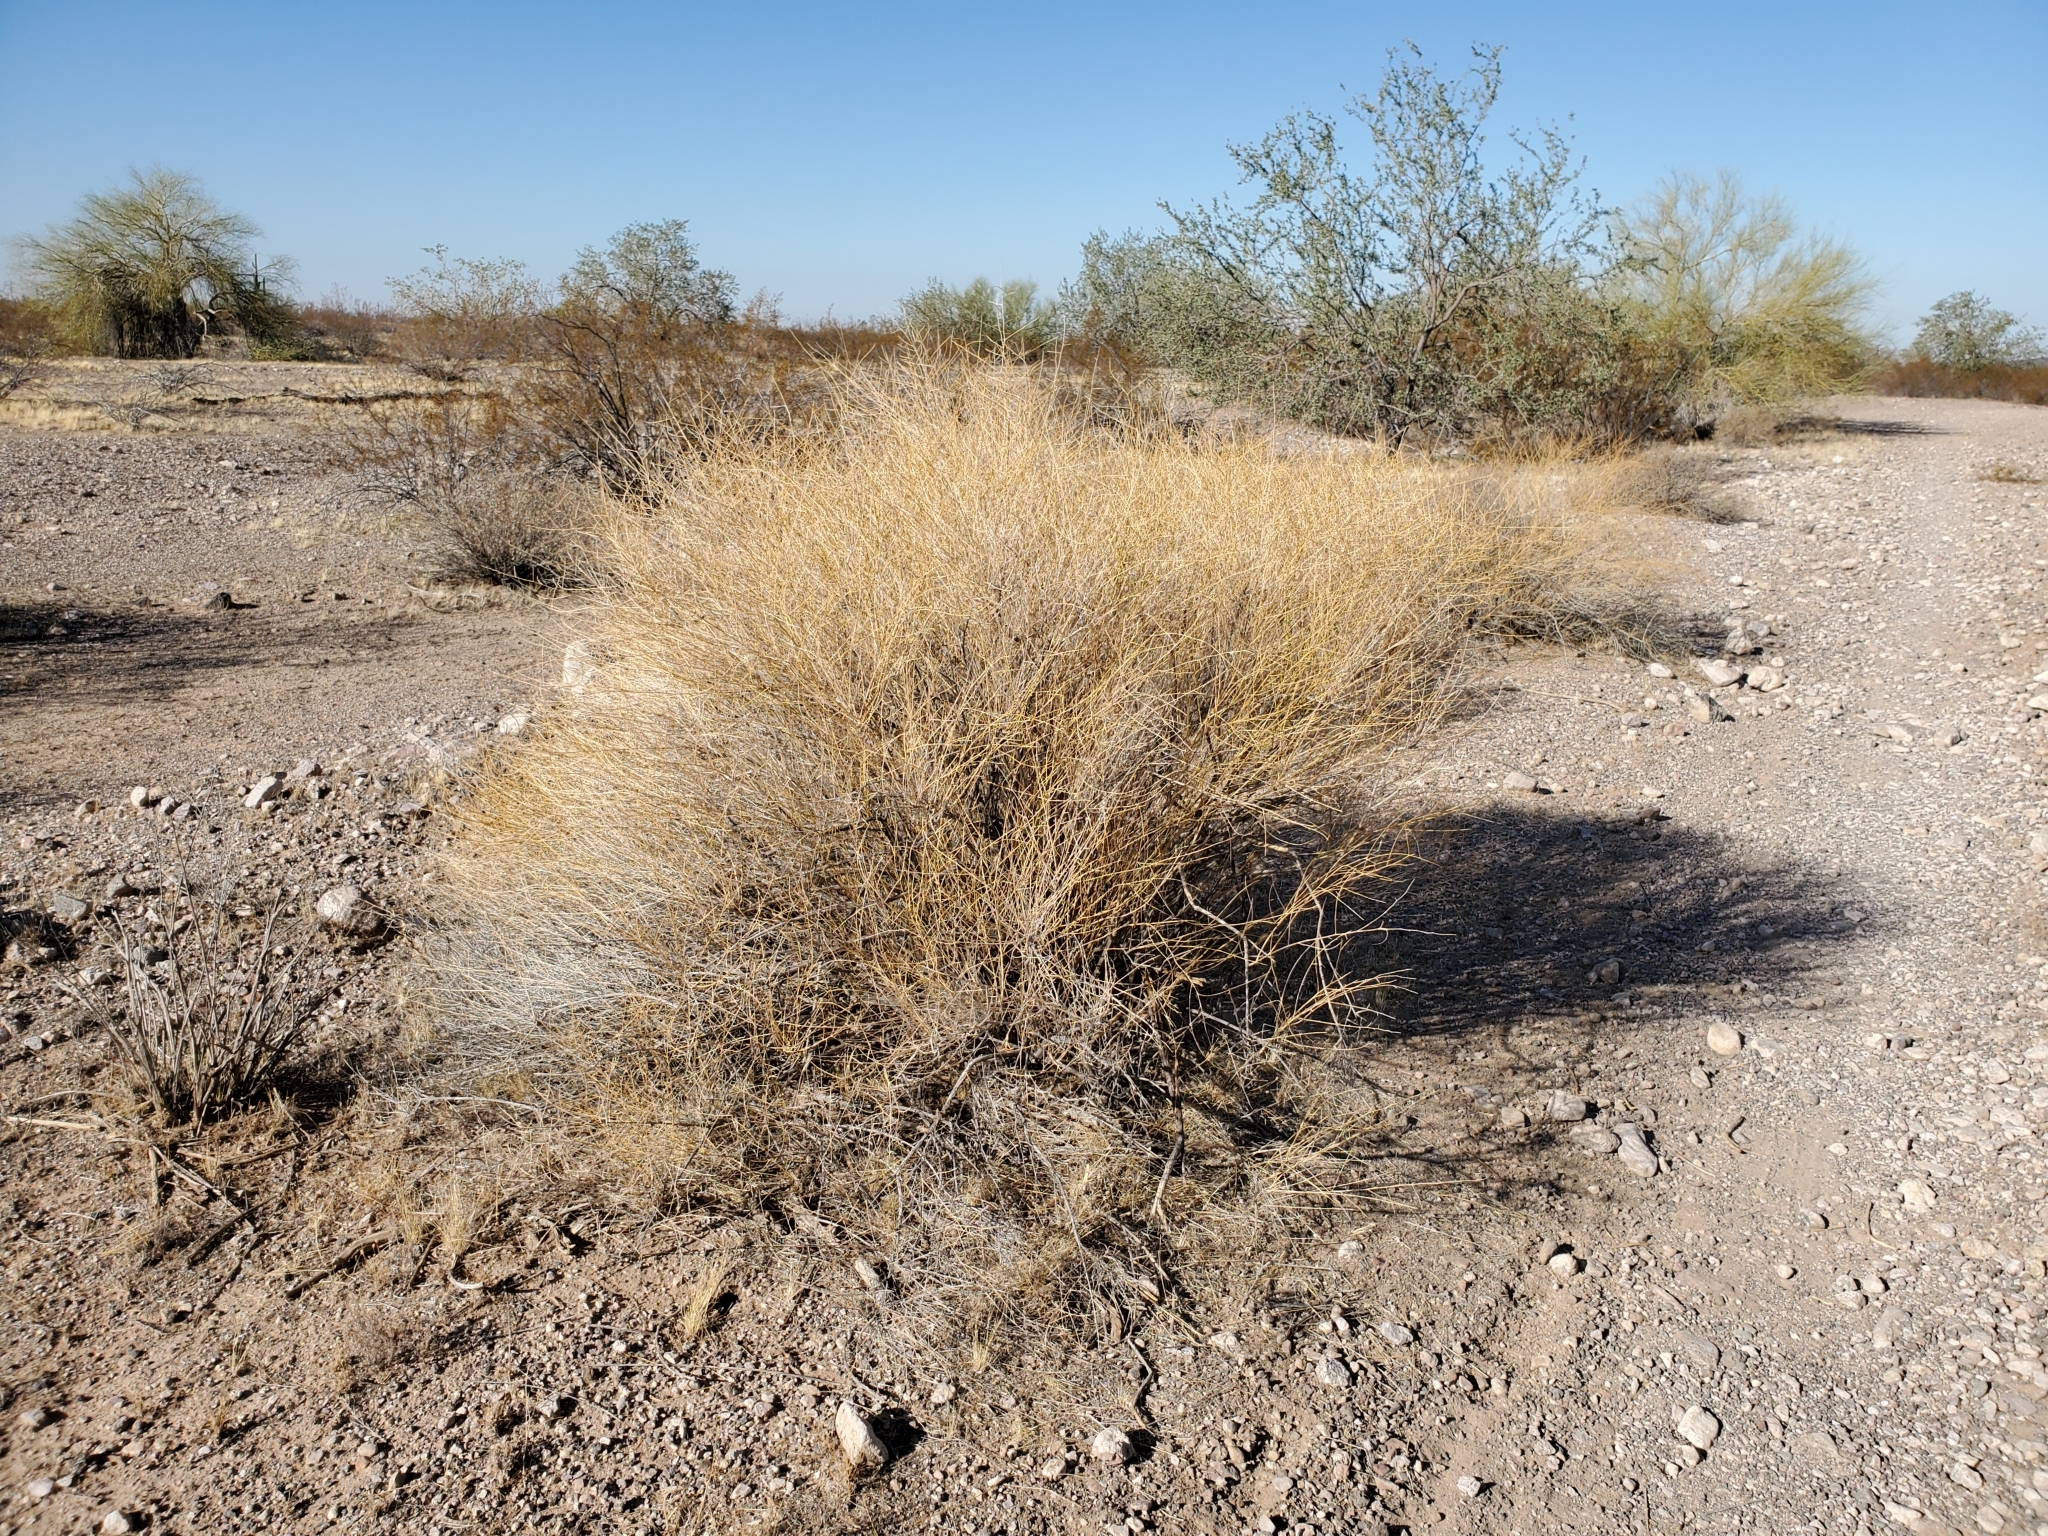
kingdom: Plantae
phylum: Tracheophyta
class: Magnoliopsida
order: Asterales
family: Asteraceae
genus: Ambrosia
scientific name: Ambrosia salsola
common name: Burrobrush
